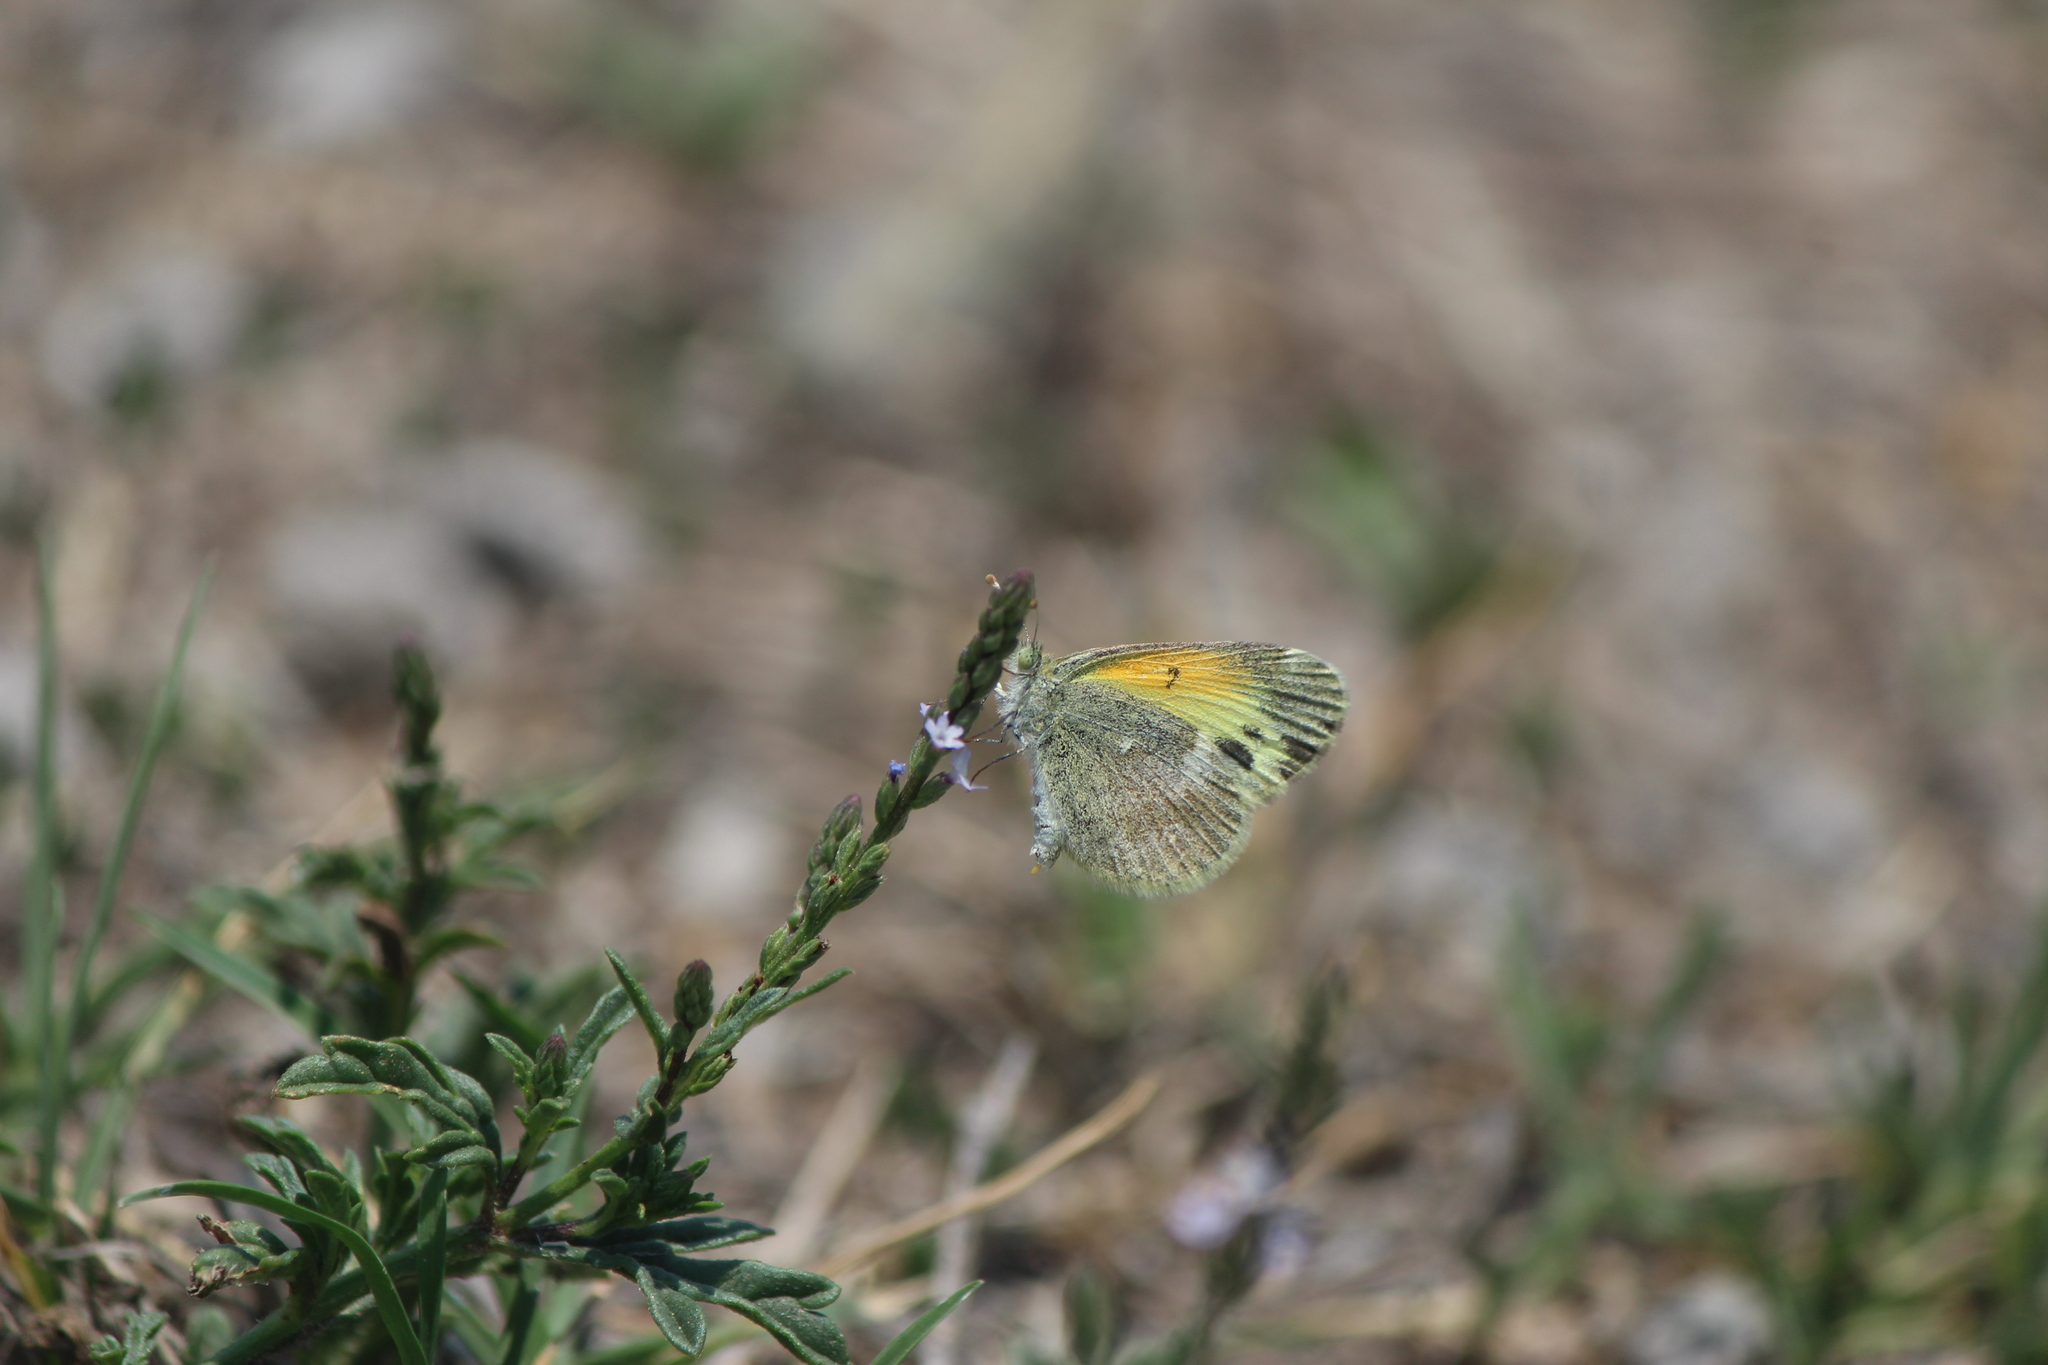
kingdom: Animalia
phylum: Arthropoda
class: Insecta
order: Lepidoptera
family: Pieridae
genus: Nathalis
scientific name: Nathalis iole
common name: Dainty sulphur
